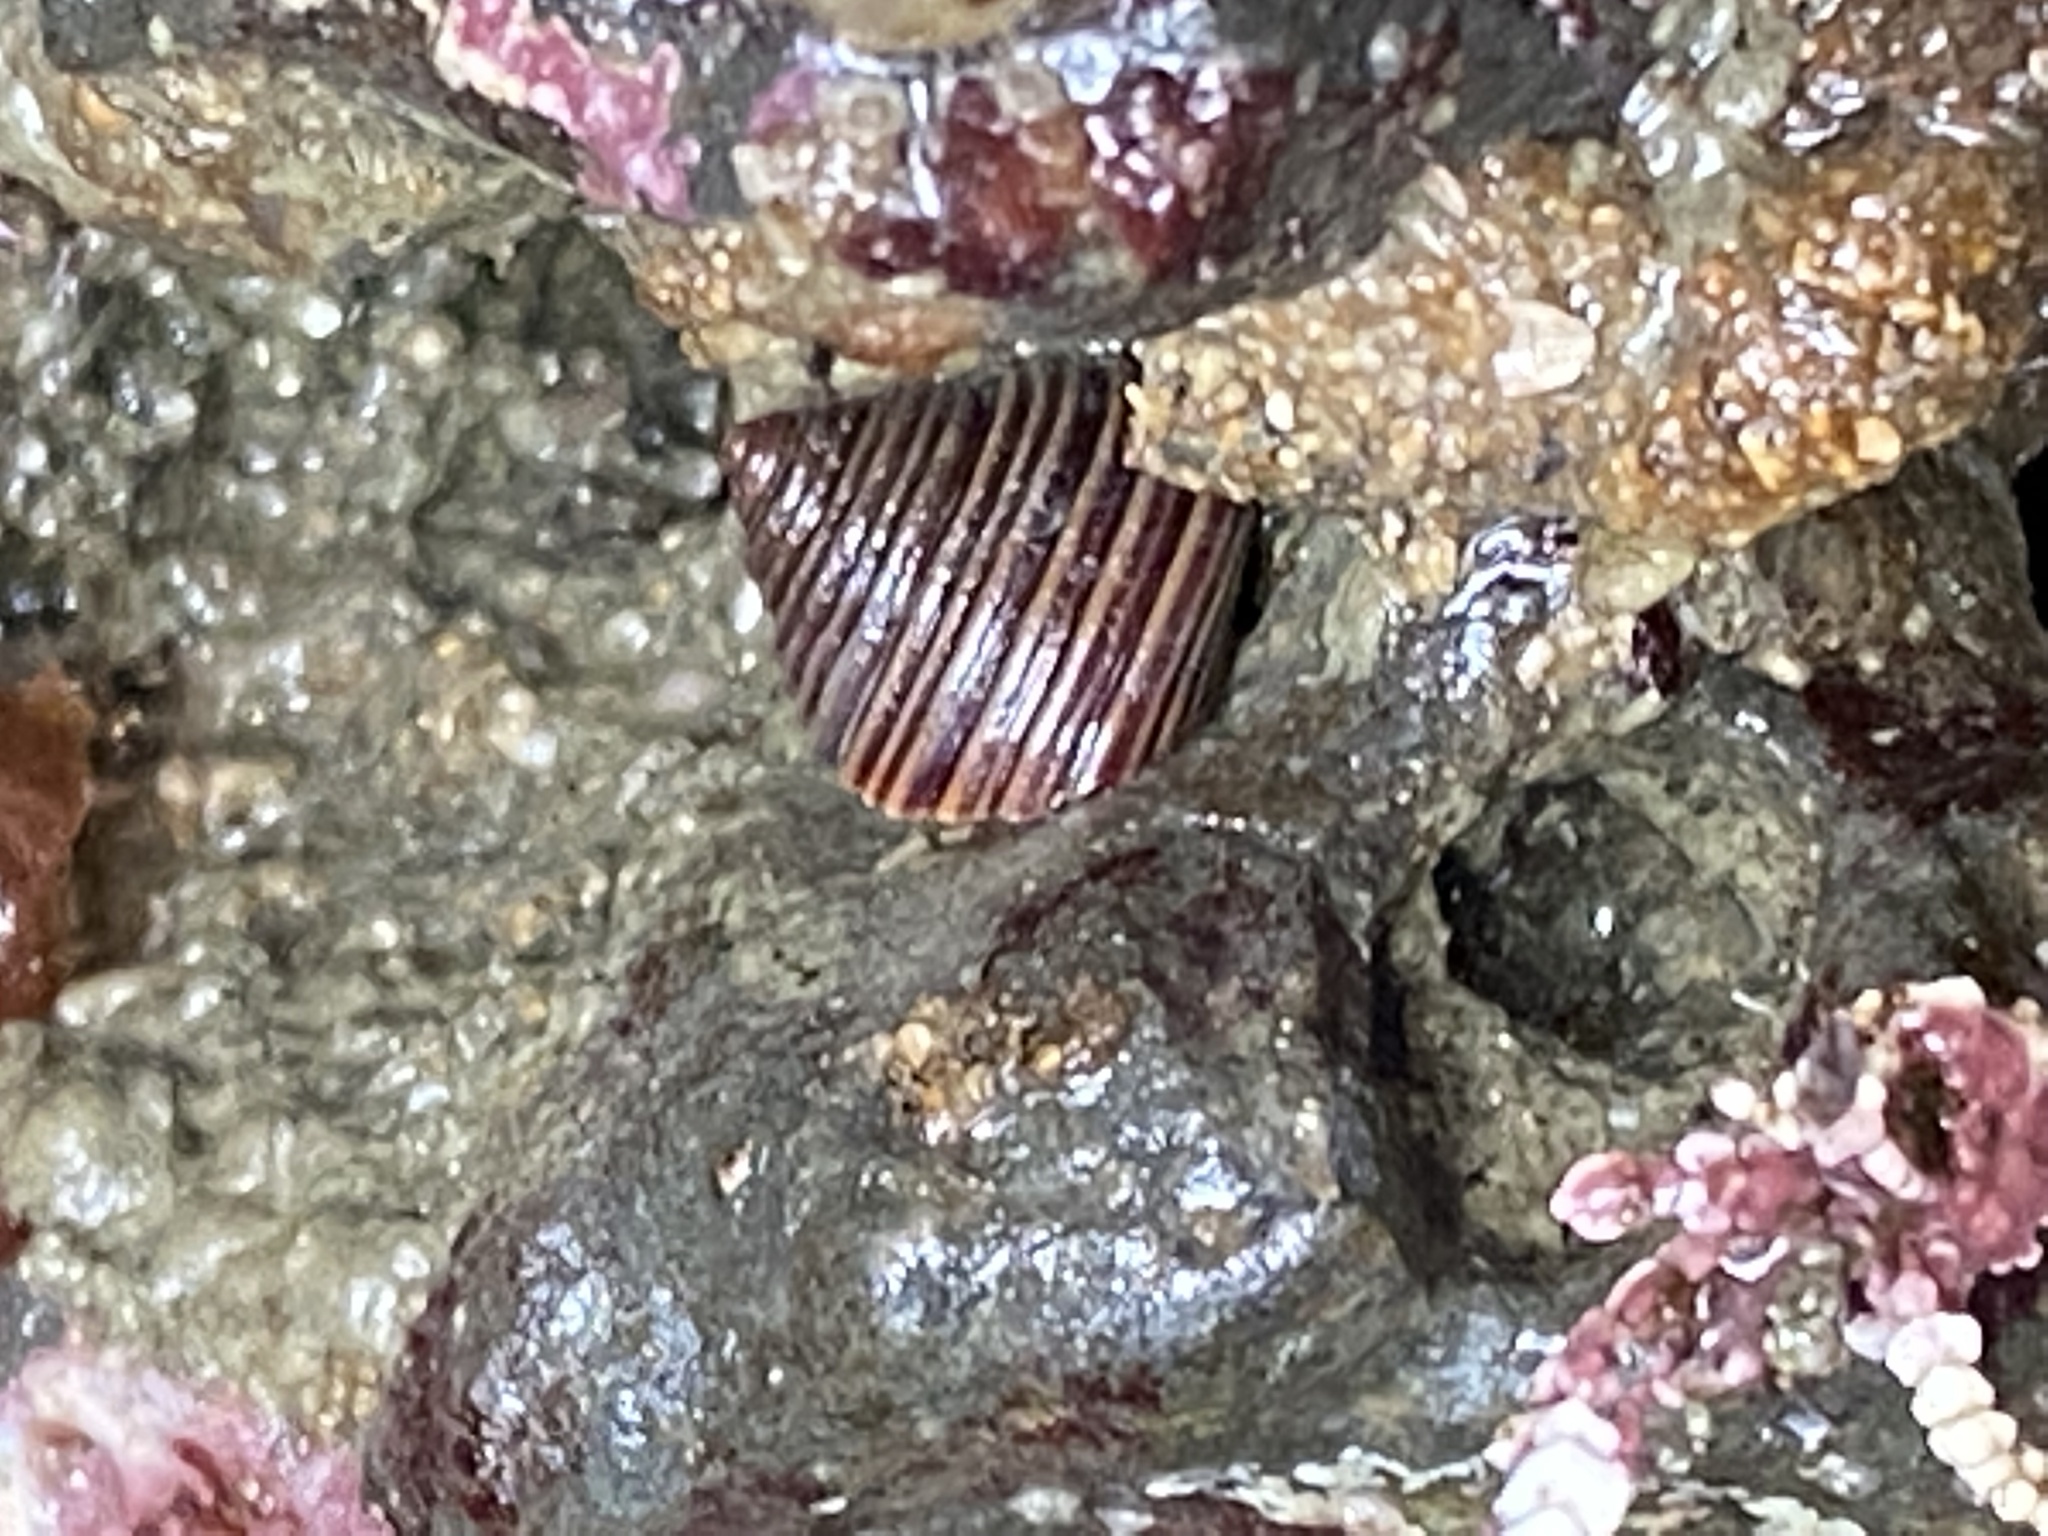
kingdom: Animalia
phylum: Mollusca
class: Gastropoda
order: Trochida
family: Calliostomatidae
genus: Calliostoma
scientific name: Calliostoma ligatum
